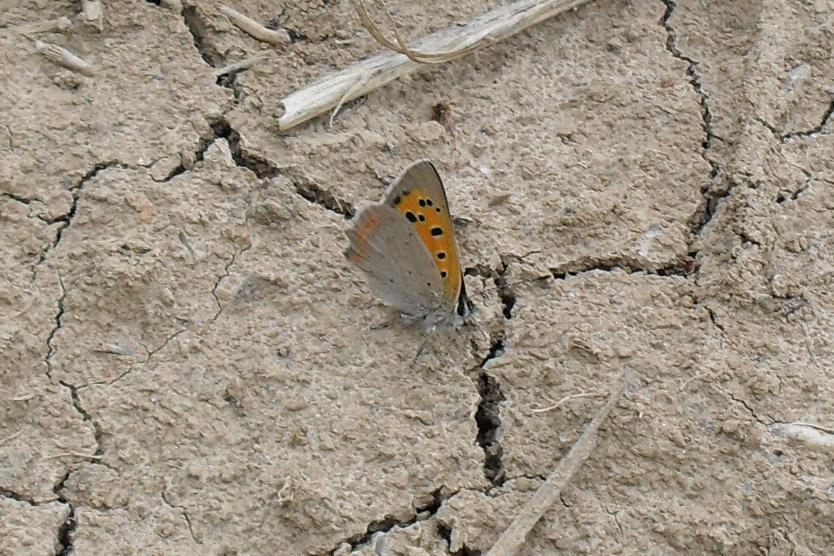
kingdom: Animalia
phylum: Arthropoda
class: Insecta
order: Lepidoptera
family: Lycaenidae
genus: Lycaena
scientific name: Lycaena phlaeas
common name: Small copper
